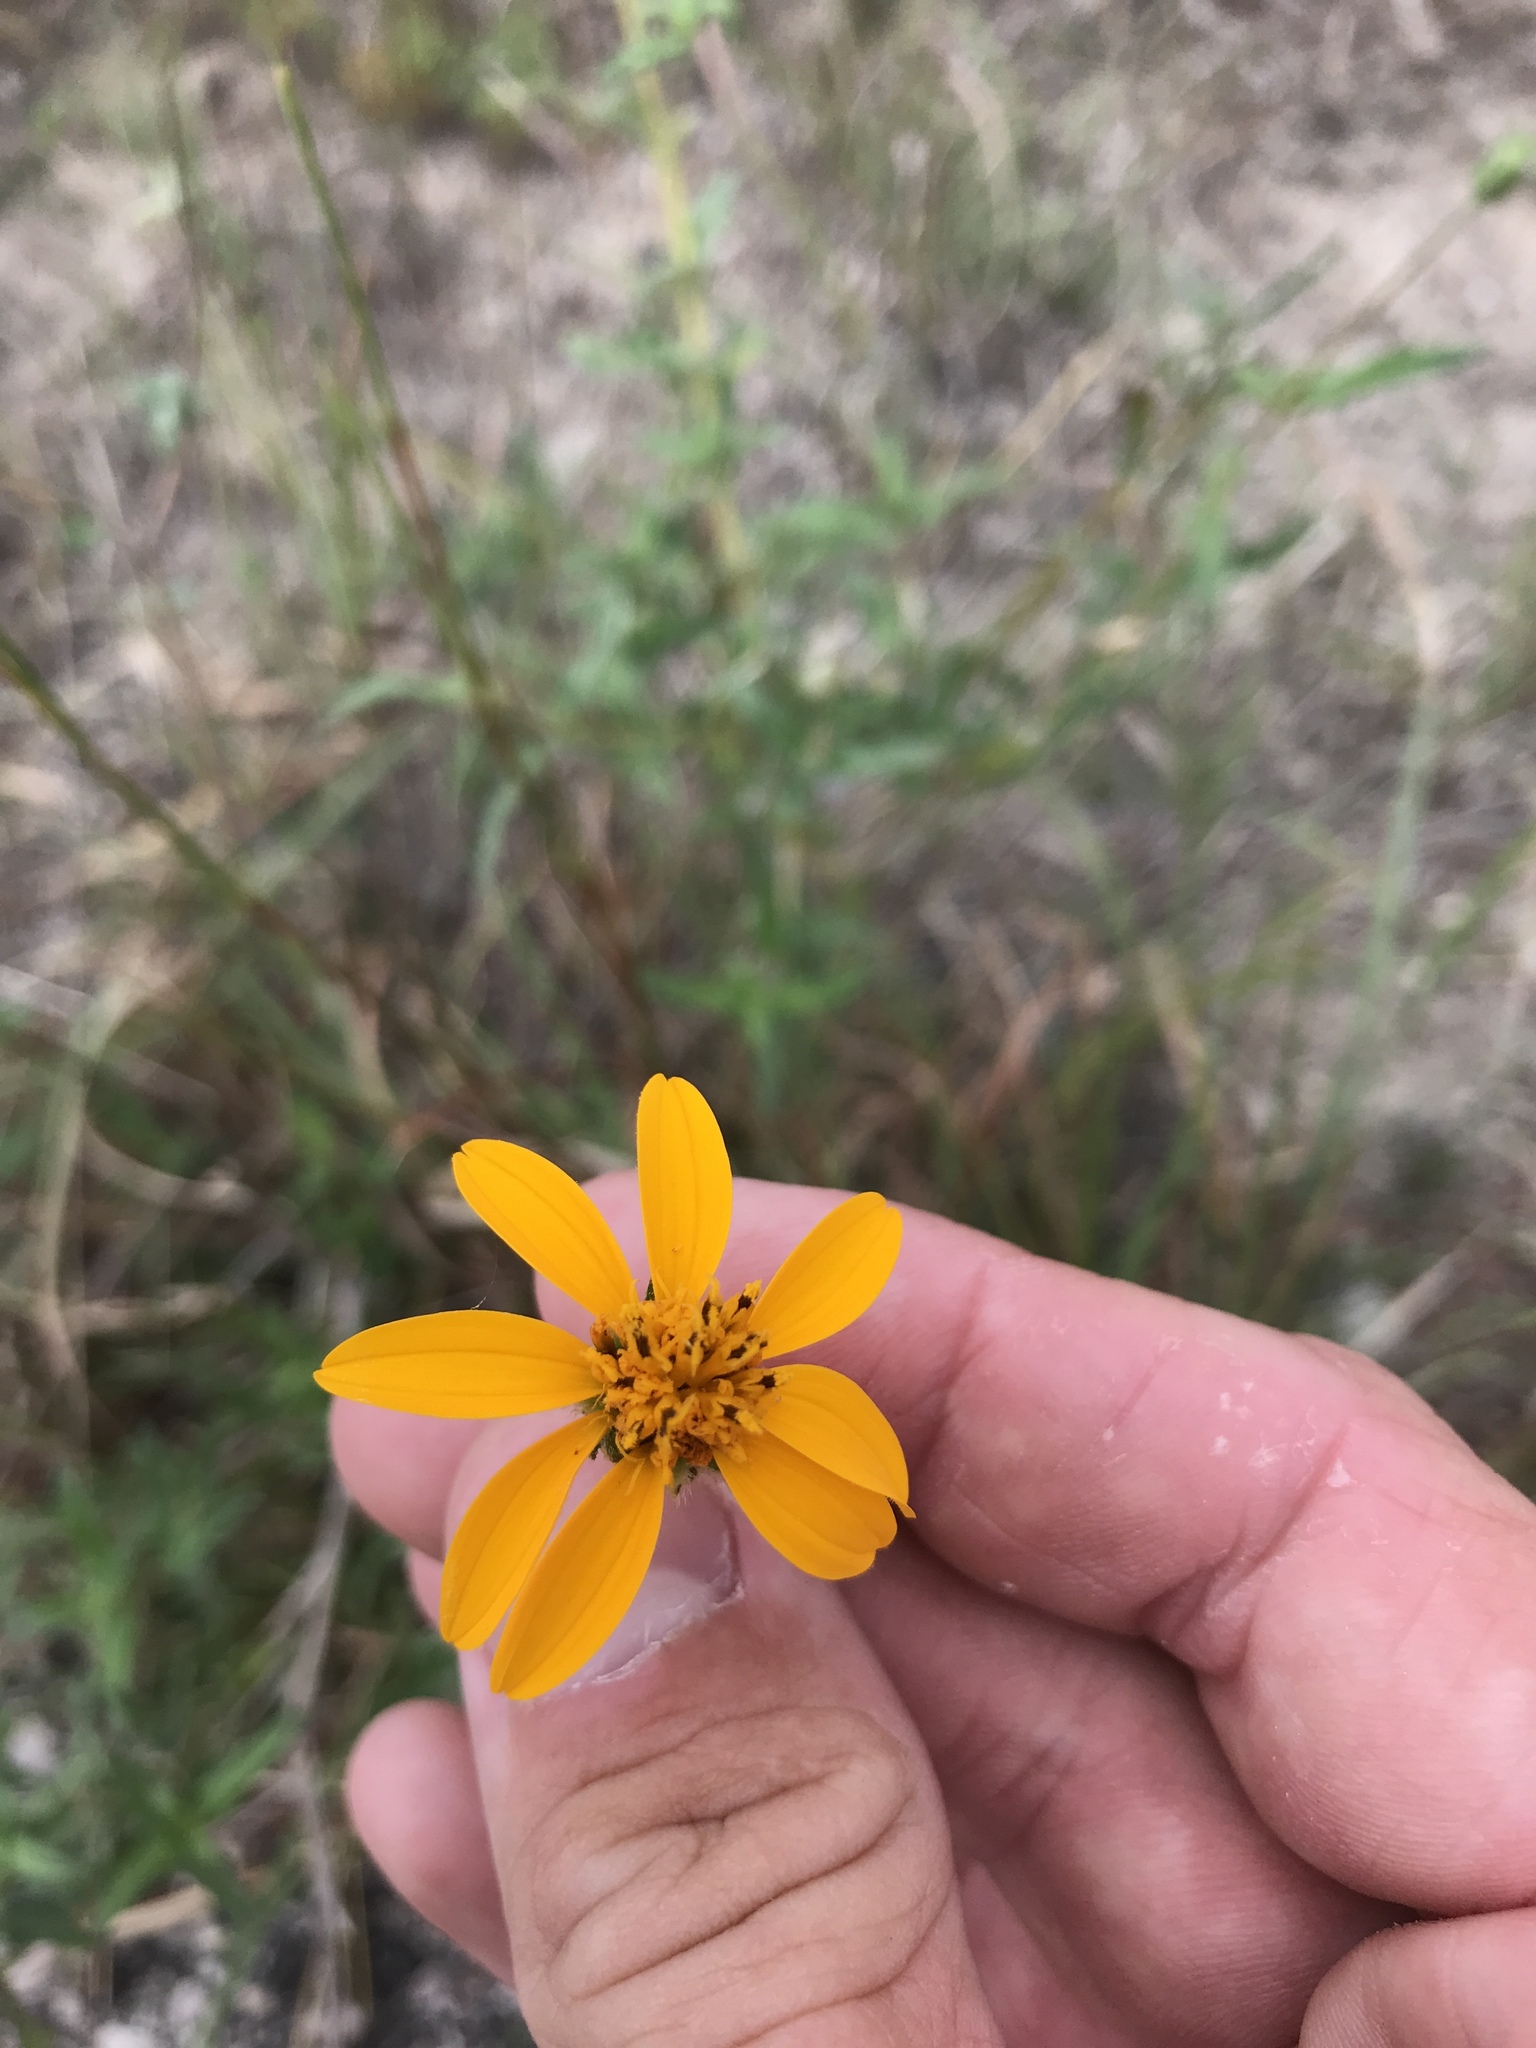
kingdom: Plantae
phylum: Tracheophyta
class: Magnoliopsida
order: Asterales
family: Asteraceae
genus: Wedelia
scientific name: Wedelia acapulcensis
